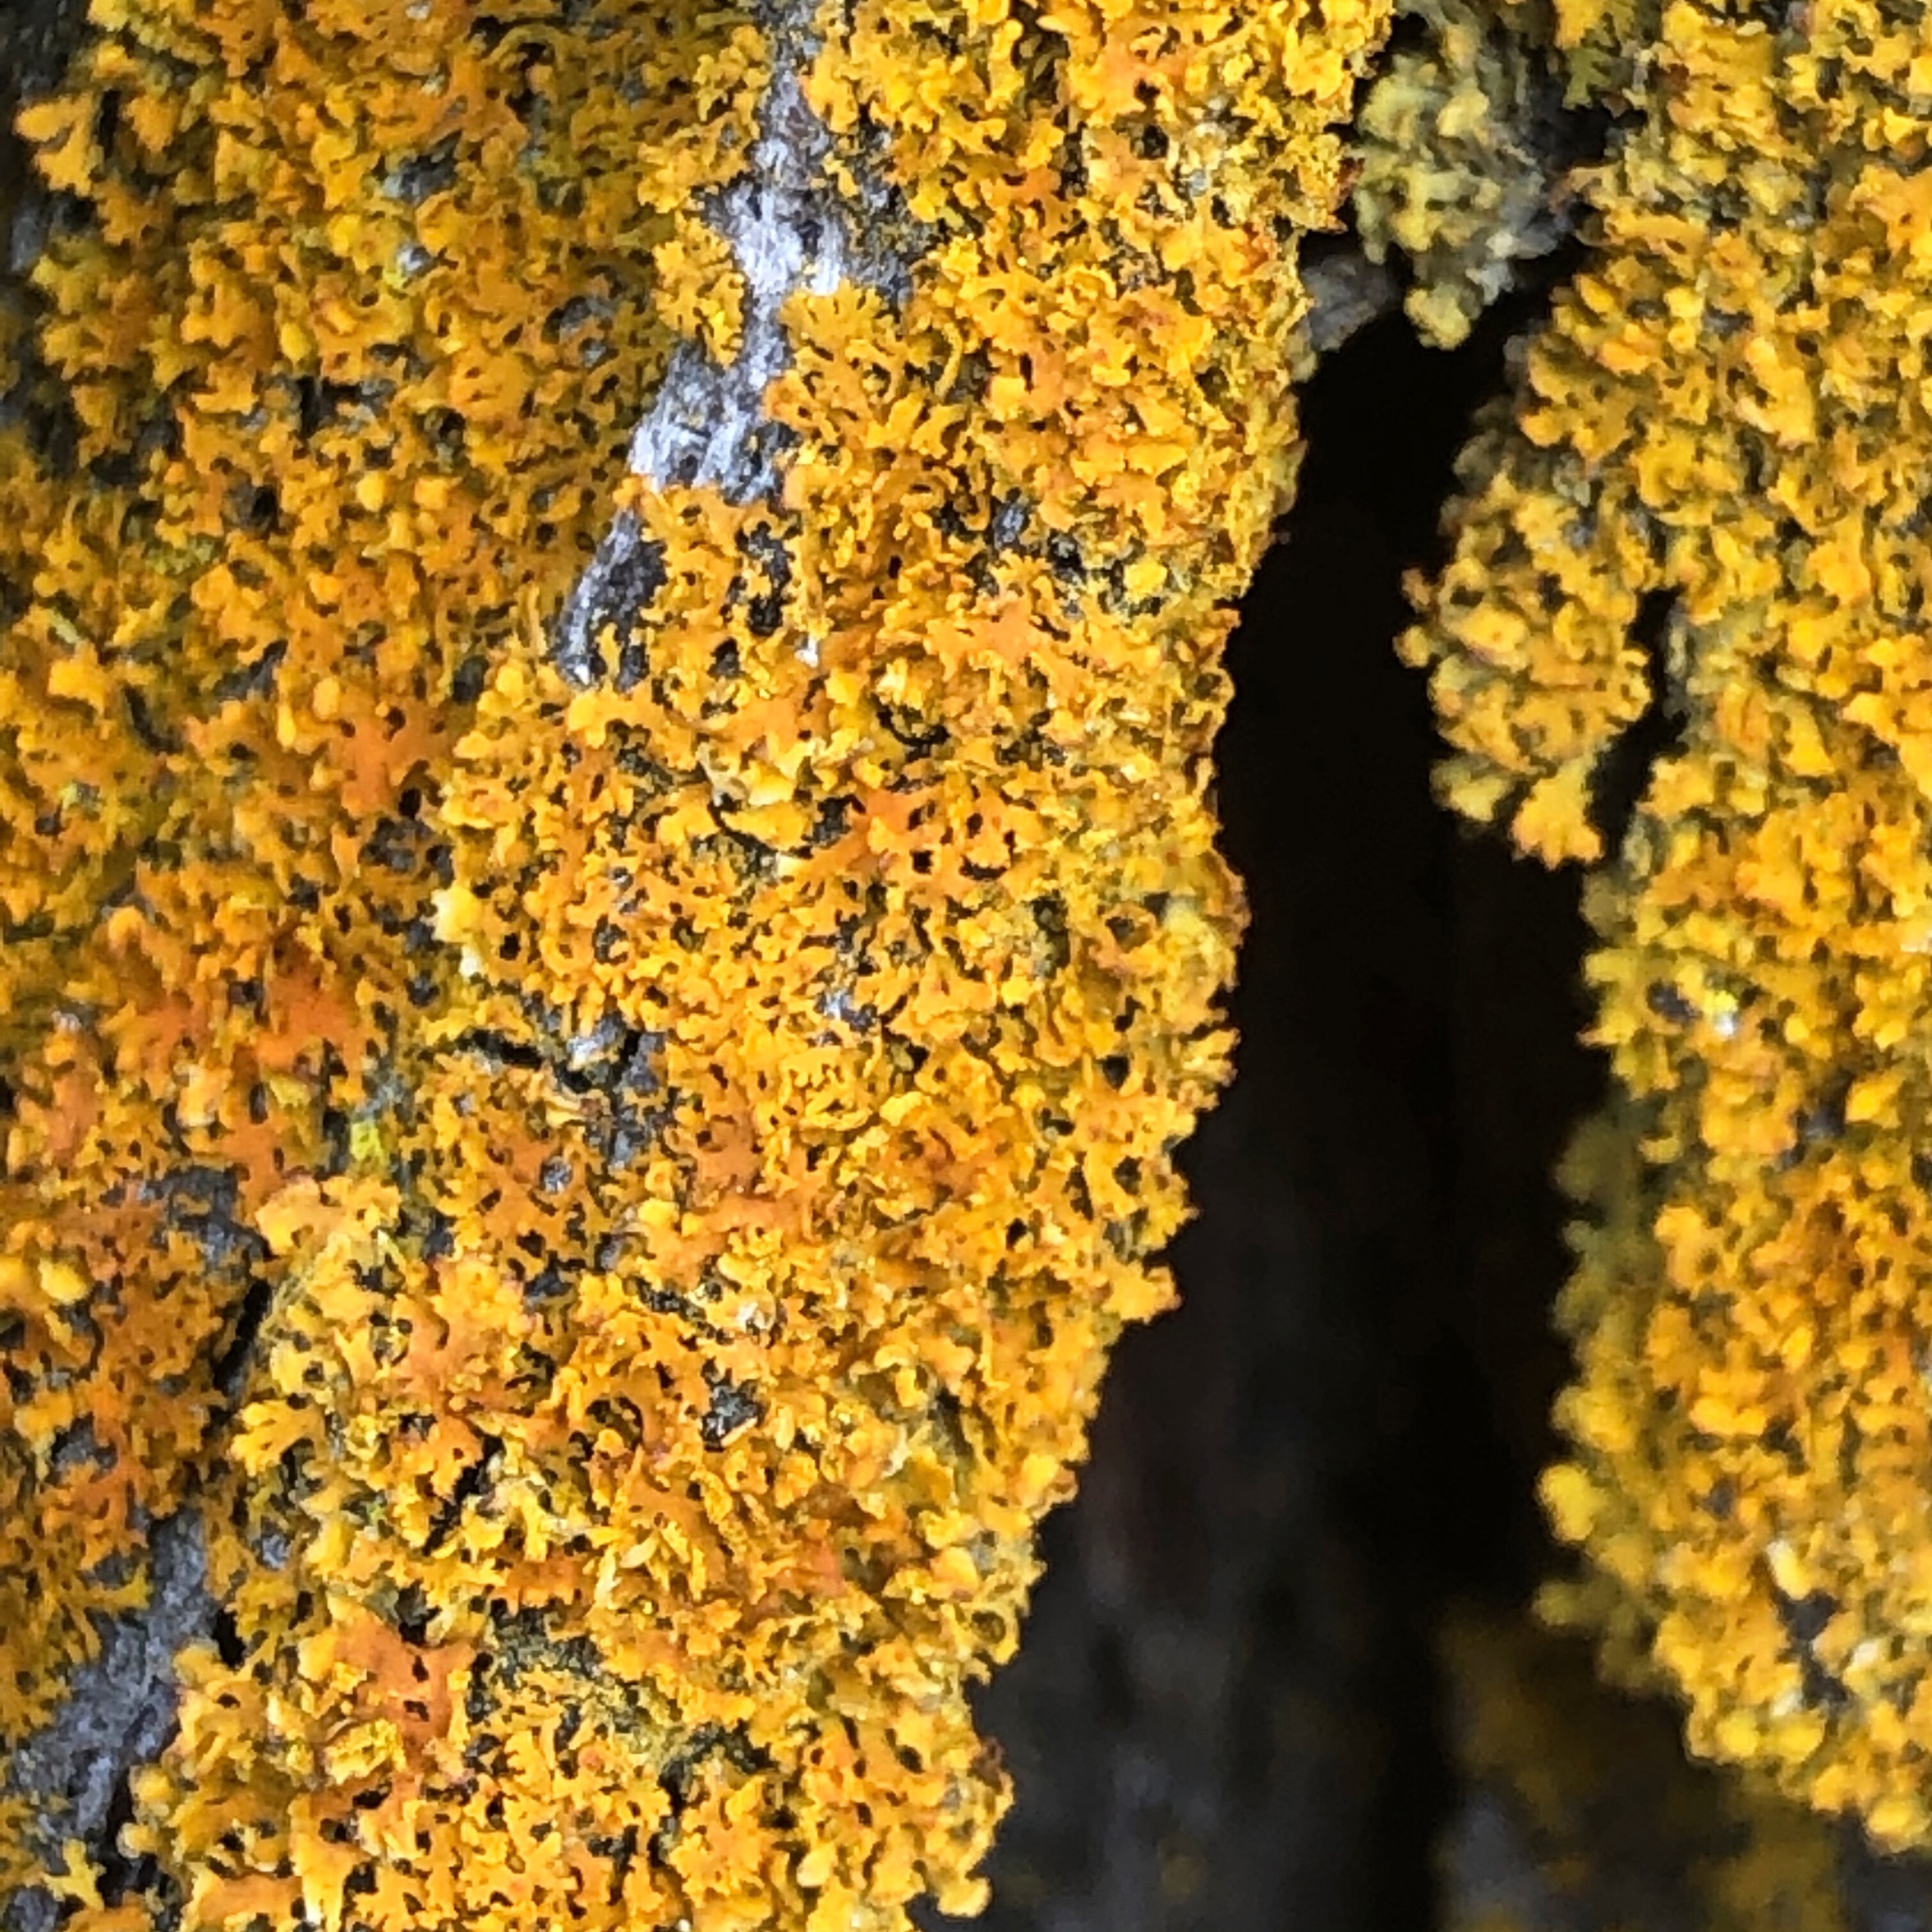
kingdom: Fungi
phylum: Ascomycota
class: Lecanoromycetes
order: Teloschistales
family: Teloschistaceae
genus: Gallowayella
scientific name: Gallowayella weberi
